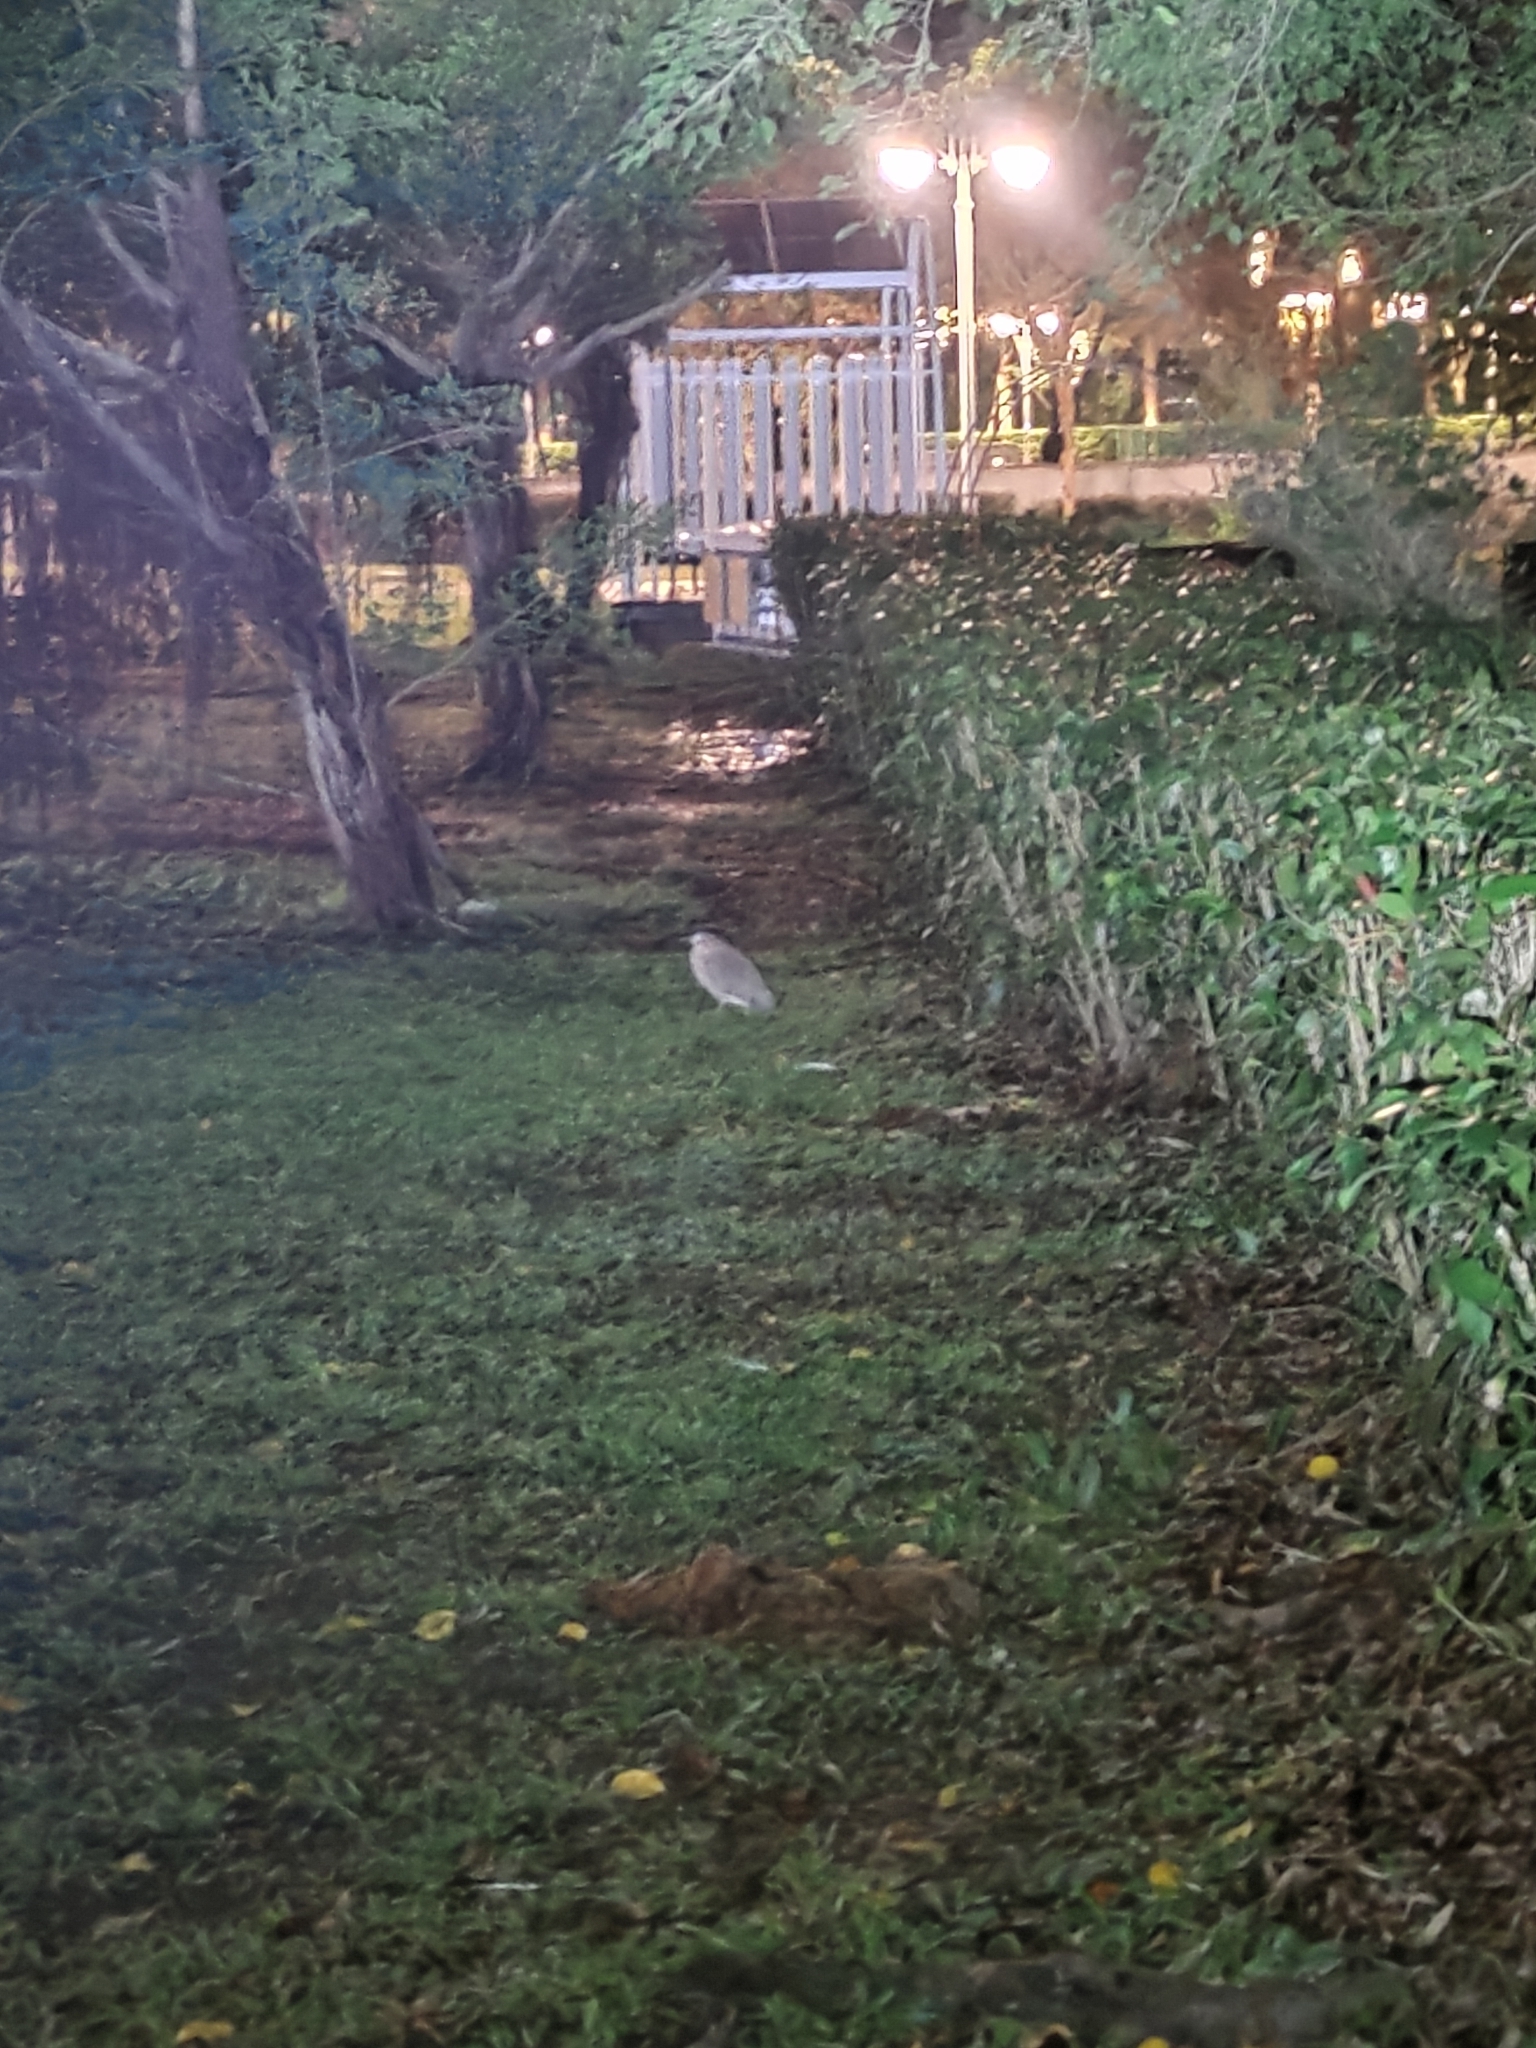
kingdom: Animalia
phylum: Chordata
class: Aves
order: Pelecaniformes
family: Ardeidae
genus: Gorsachius
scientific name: Gorsachius melanolophus
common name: Malayan night heron
